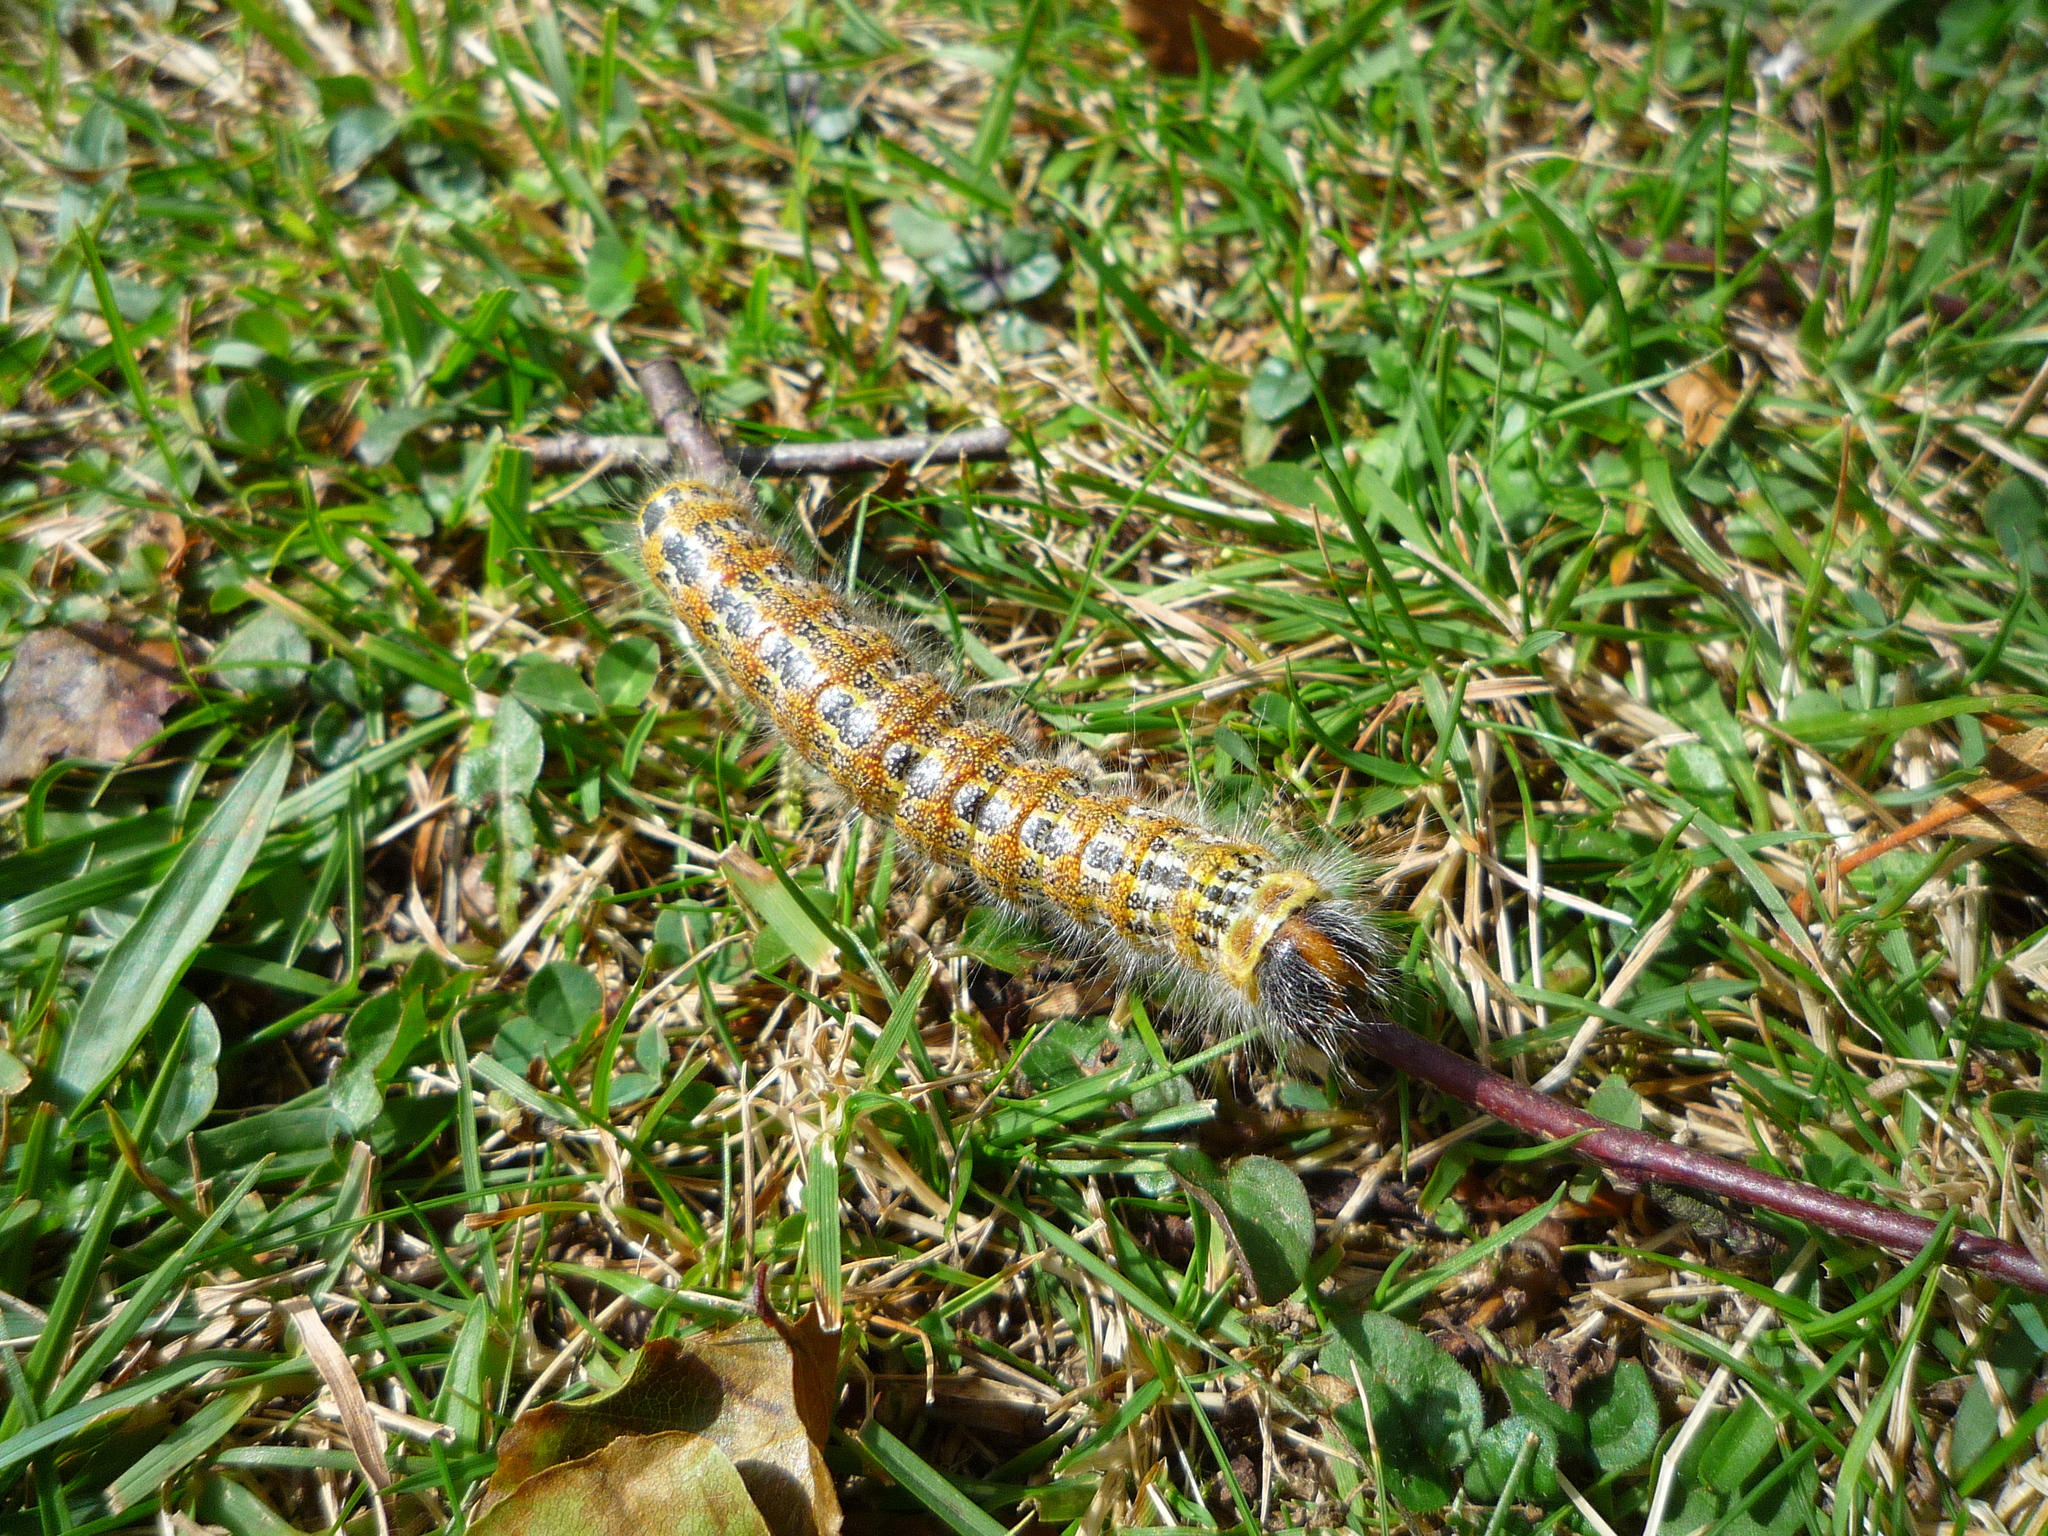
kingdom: Animalia
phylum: Arthropoda
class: Insecta
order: Lepidoptera
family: Notodontidae
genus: Phalera
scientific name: Phalera bucephala
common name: Buff-tip
